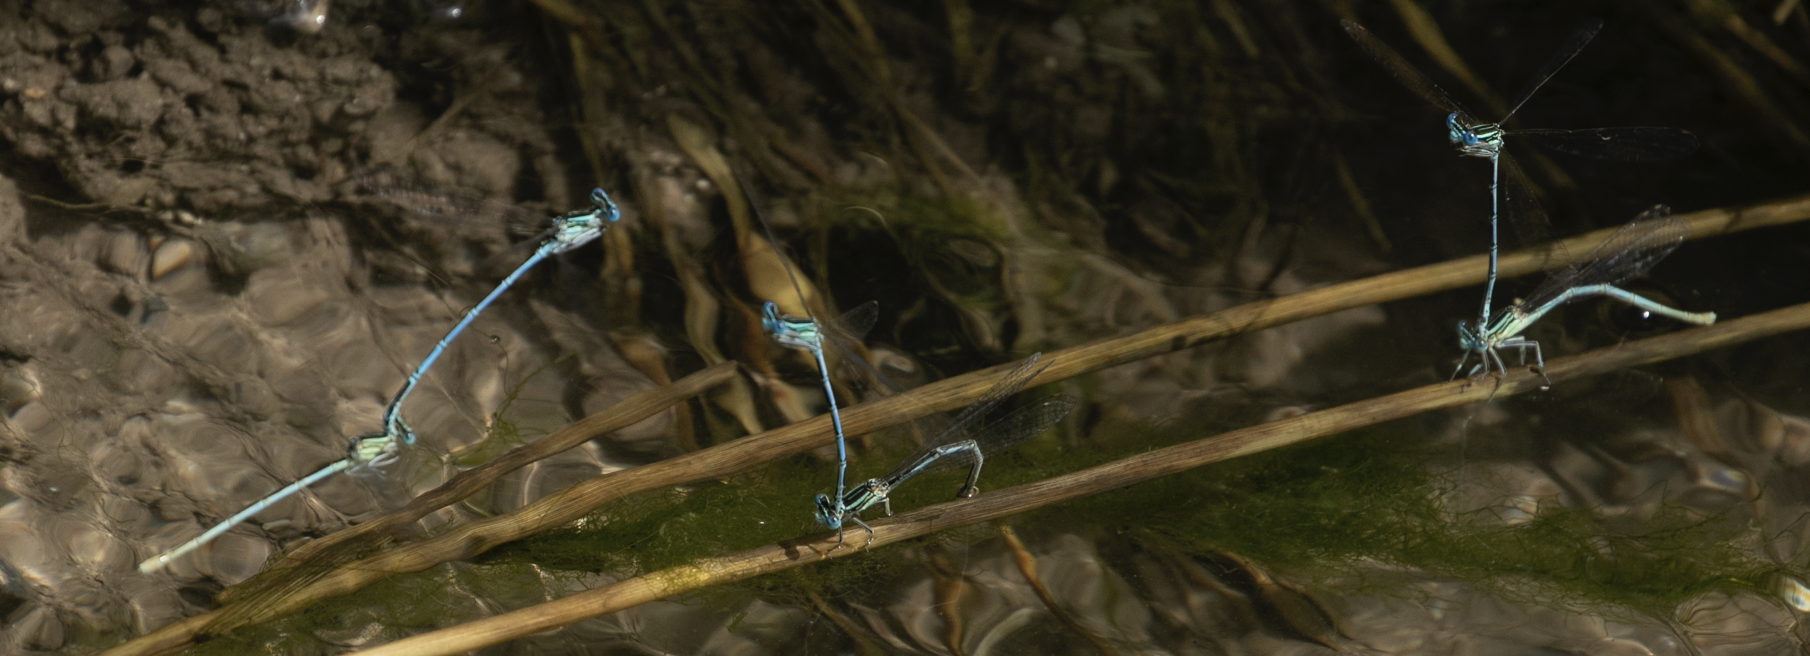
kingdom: Animalia
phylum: Arthropoda
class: Insecta
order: Odonata
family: Platycnemididae
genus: Platycnemis
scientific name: Platycnemis pennipes
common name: White-legged damselfly
